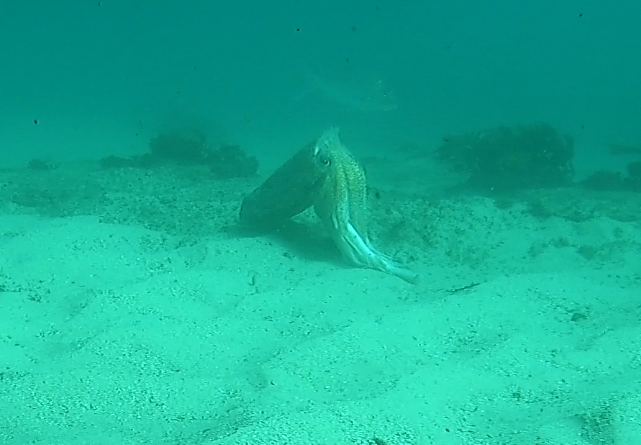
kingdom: Animalia
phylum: Mollusca
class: Cephalopoda
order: Sepiida
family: Sepiidae
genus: Ascarosepion
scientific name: Ascarosepion apama
